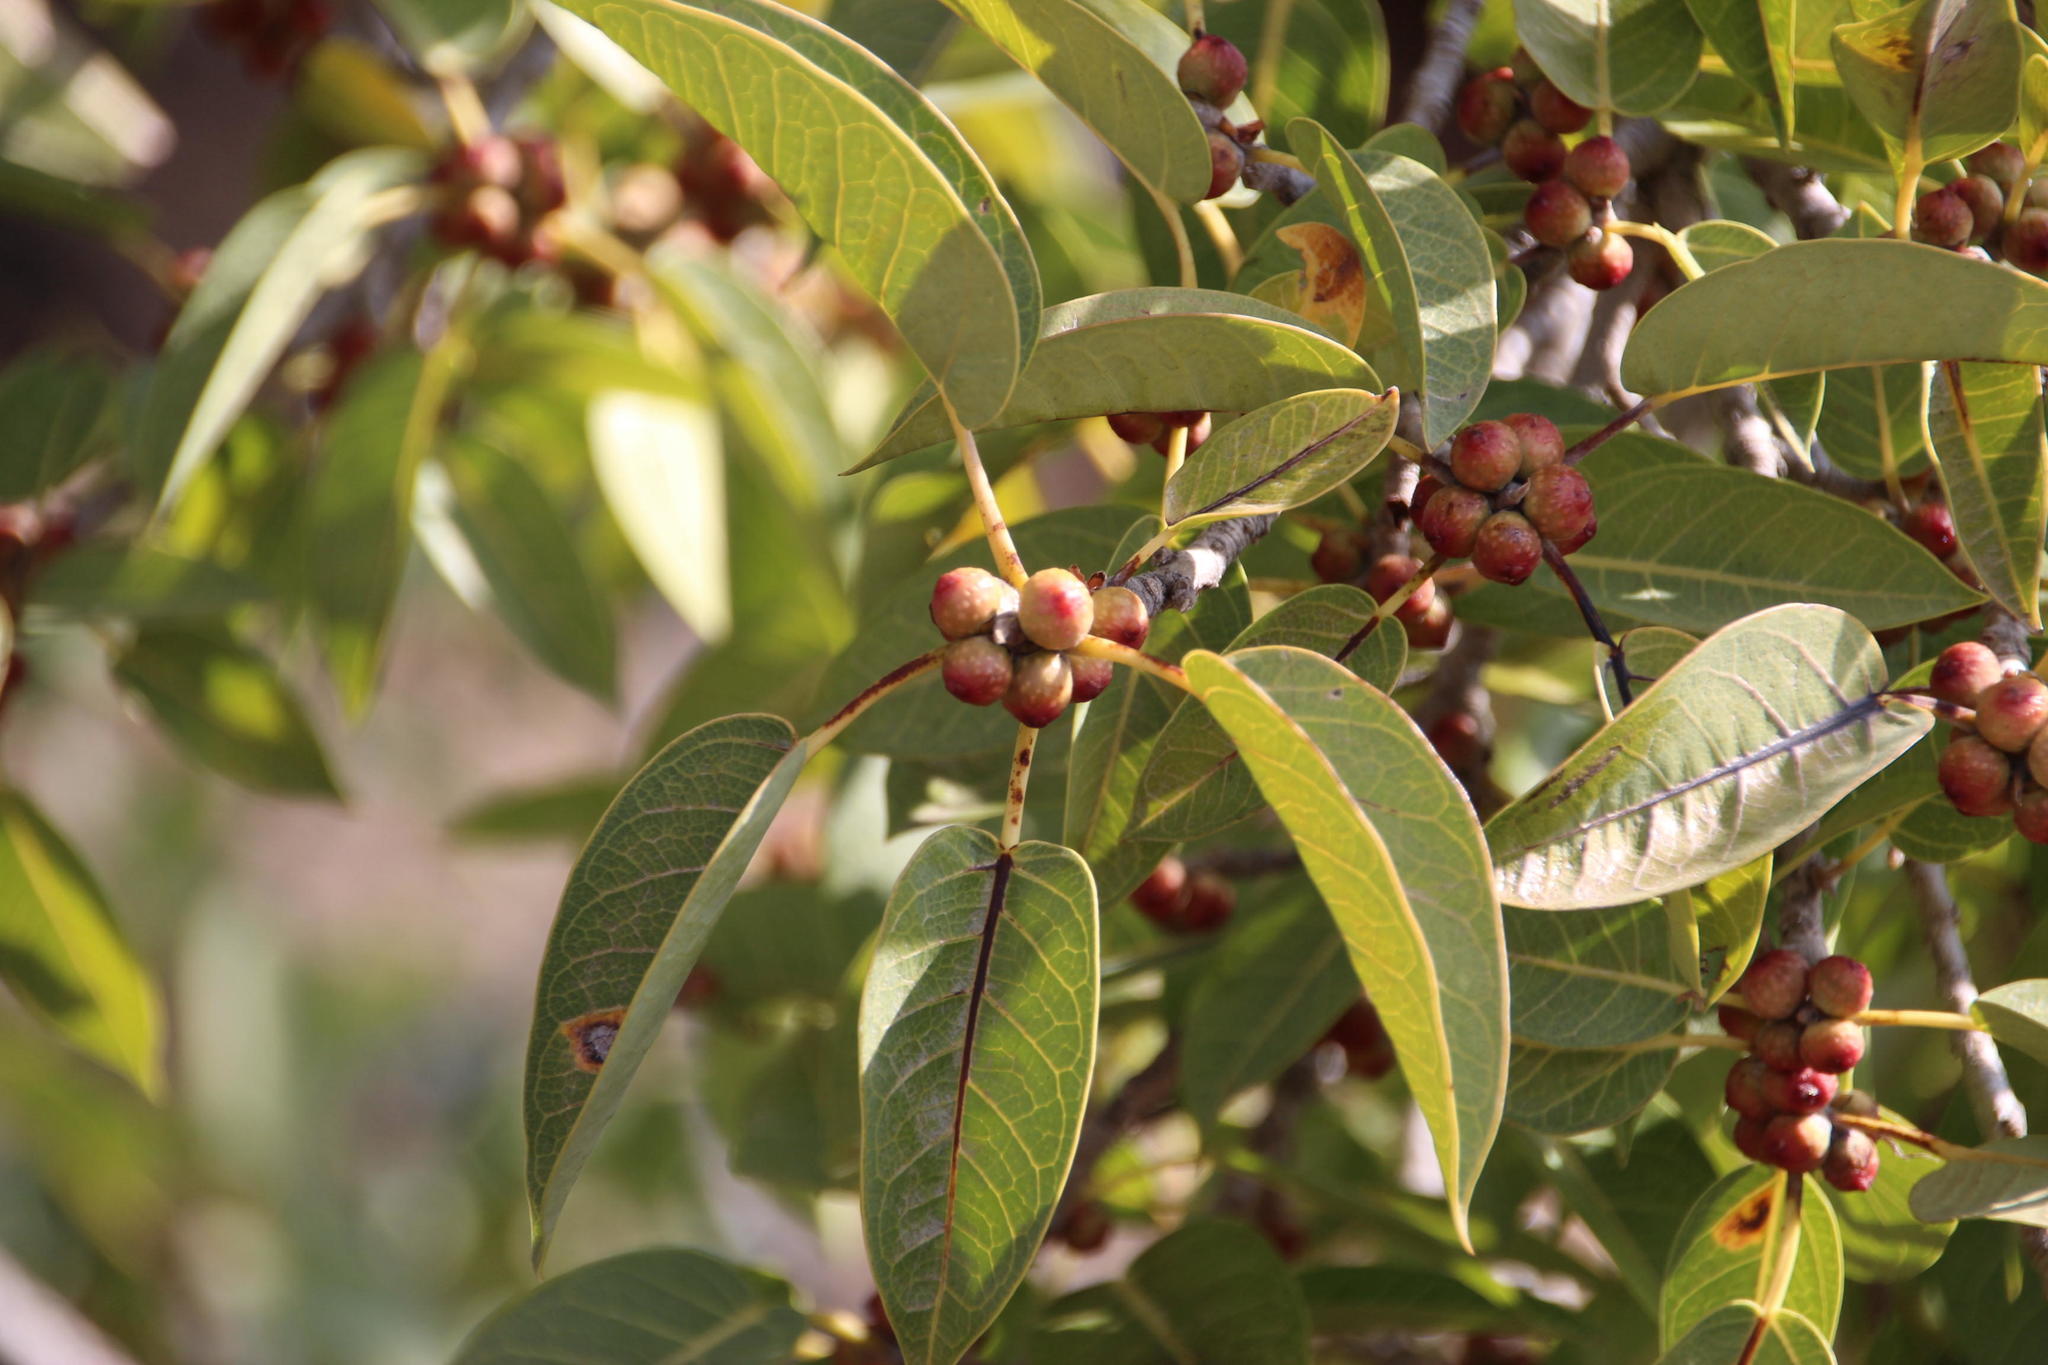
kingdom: Plantae
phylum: Tracheophyta
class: Magnoliopsida
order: Rosales
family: Moraceae
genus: Ficus
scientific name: Ficus cordata
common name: Namaqua rock fig
